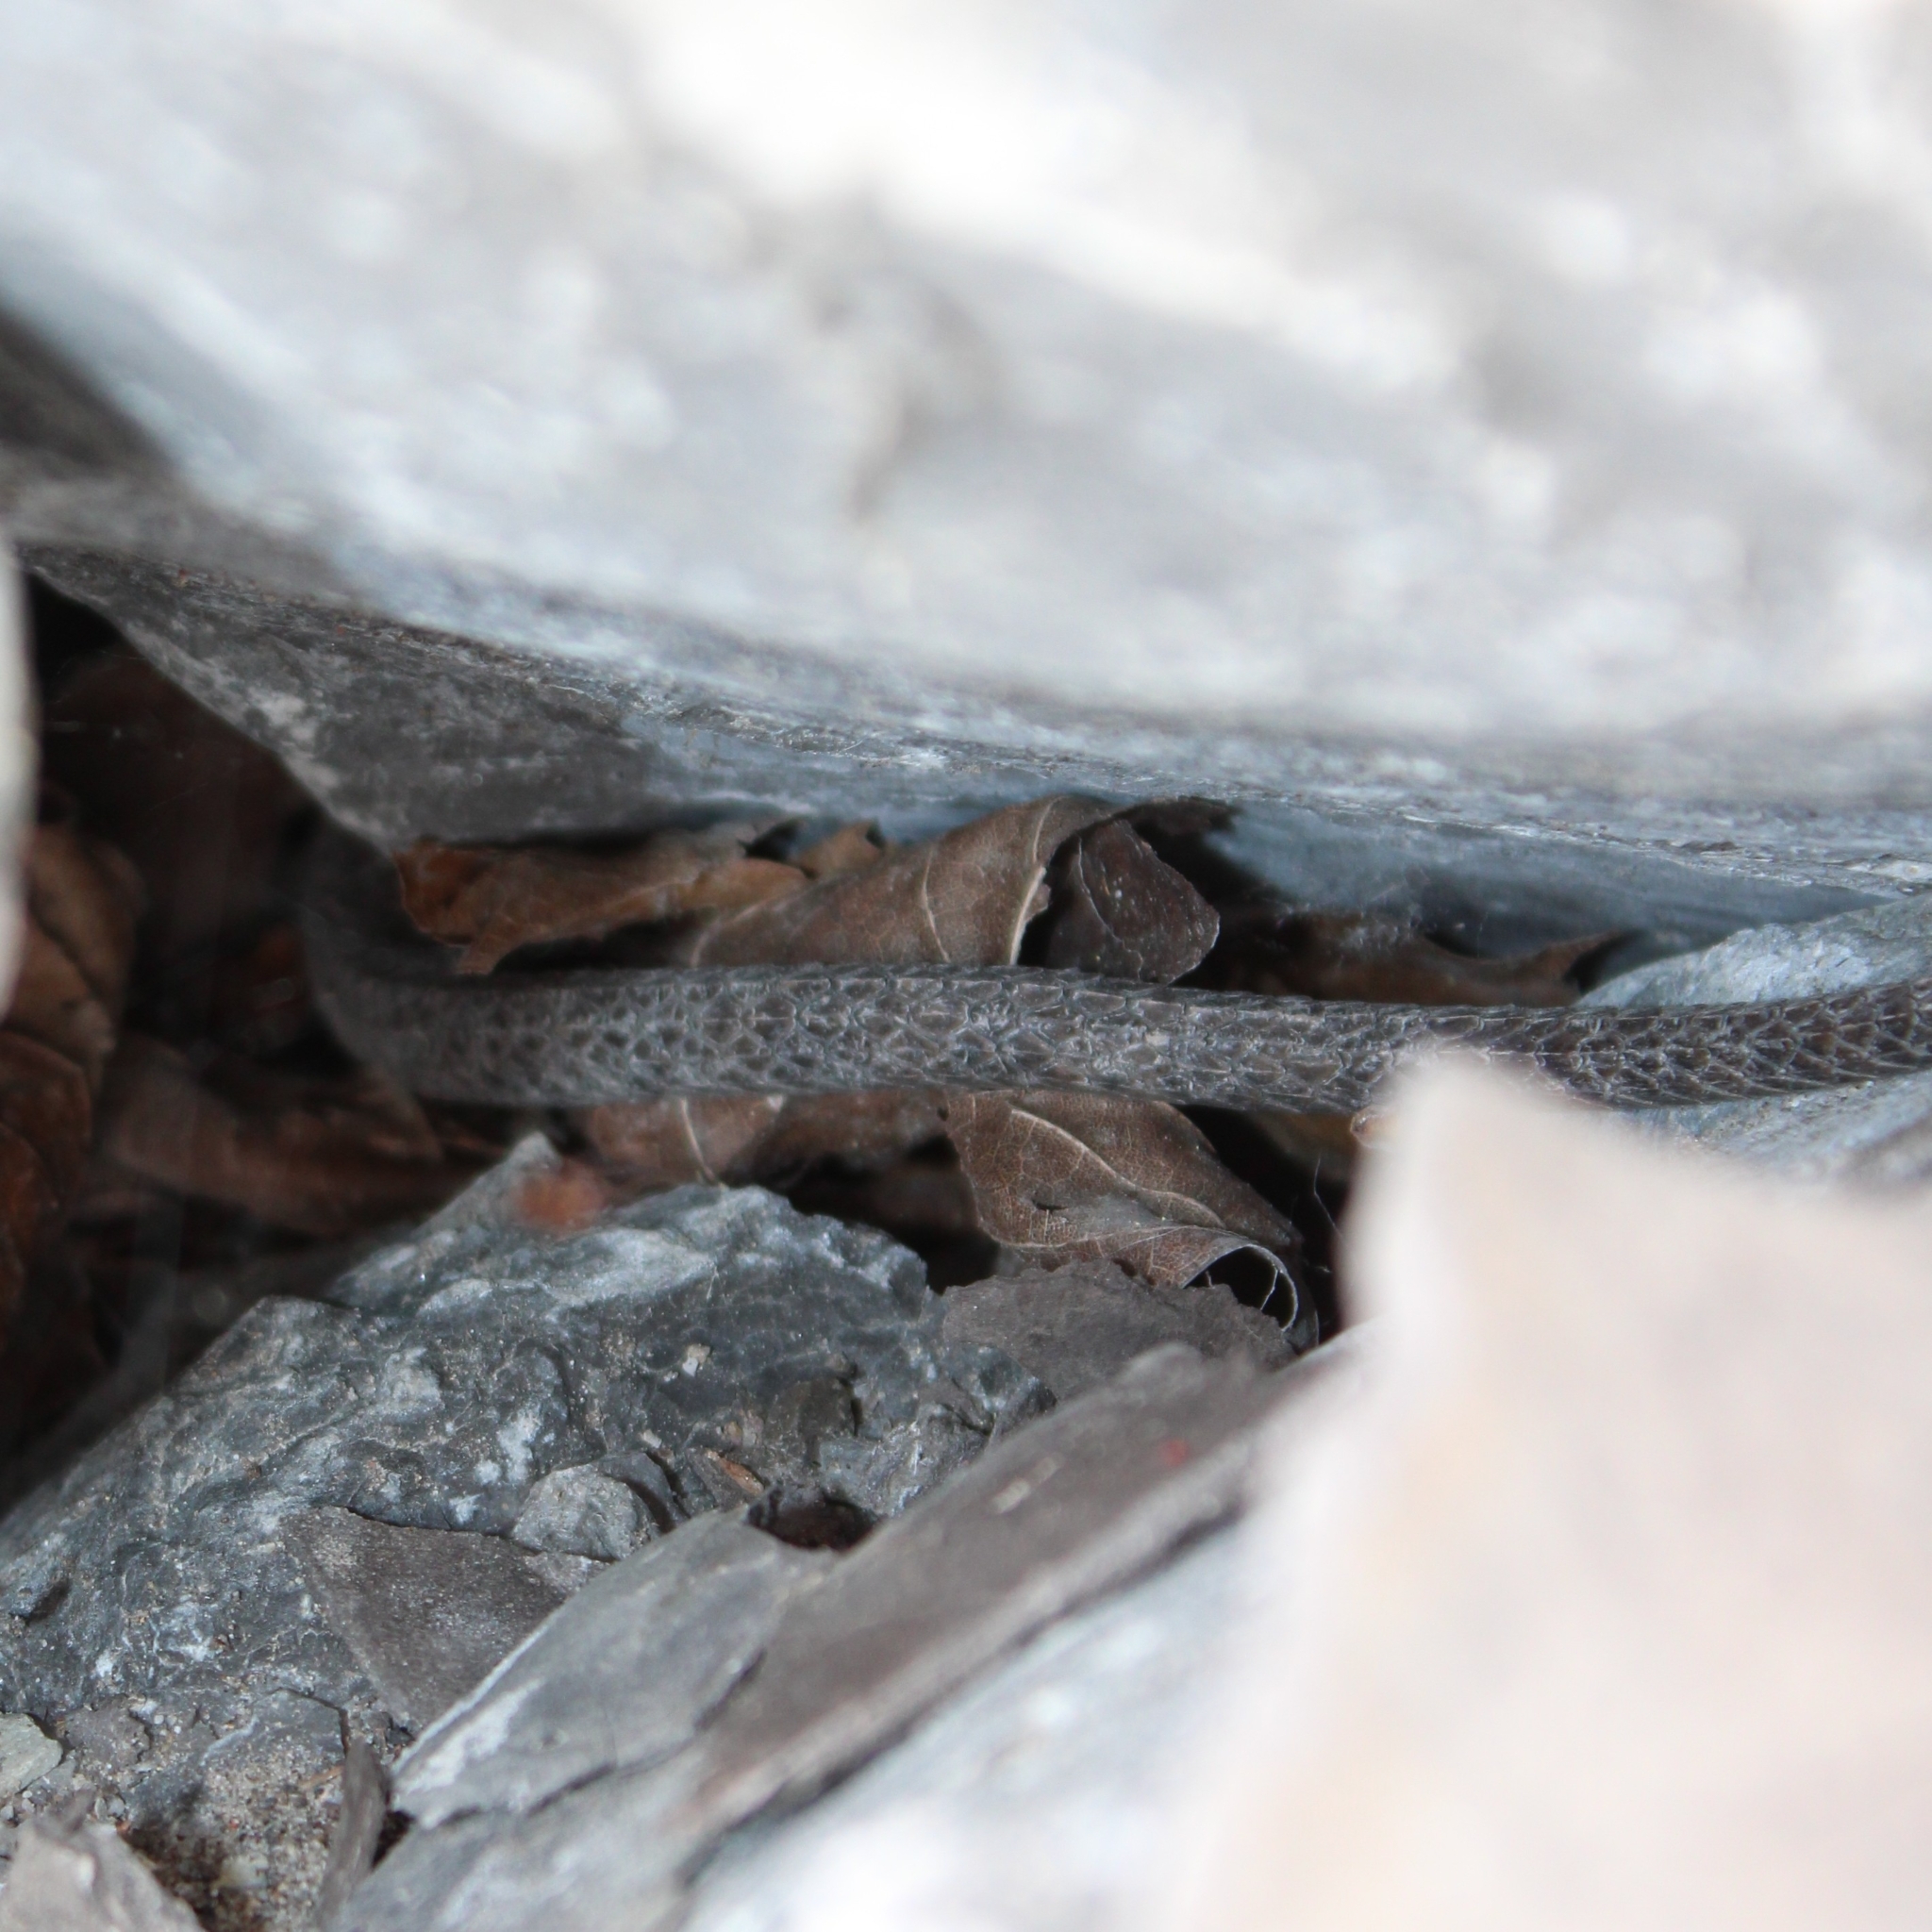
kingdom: Animalia
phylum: Chordata
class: Squamata
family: Colubridae
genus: Nerodia
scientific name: Nerodia sipedon
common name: Northern water snake
